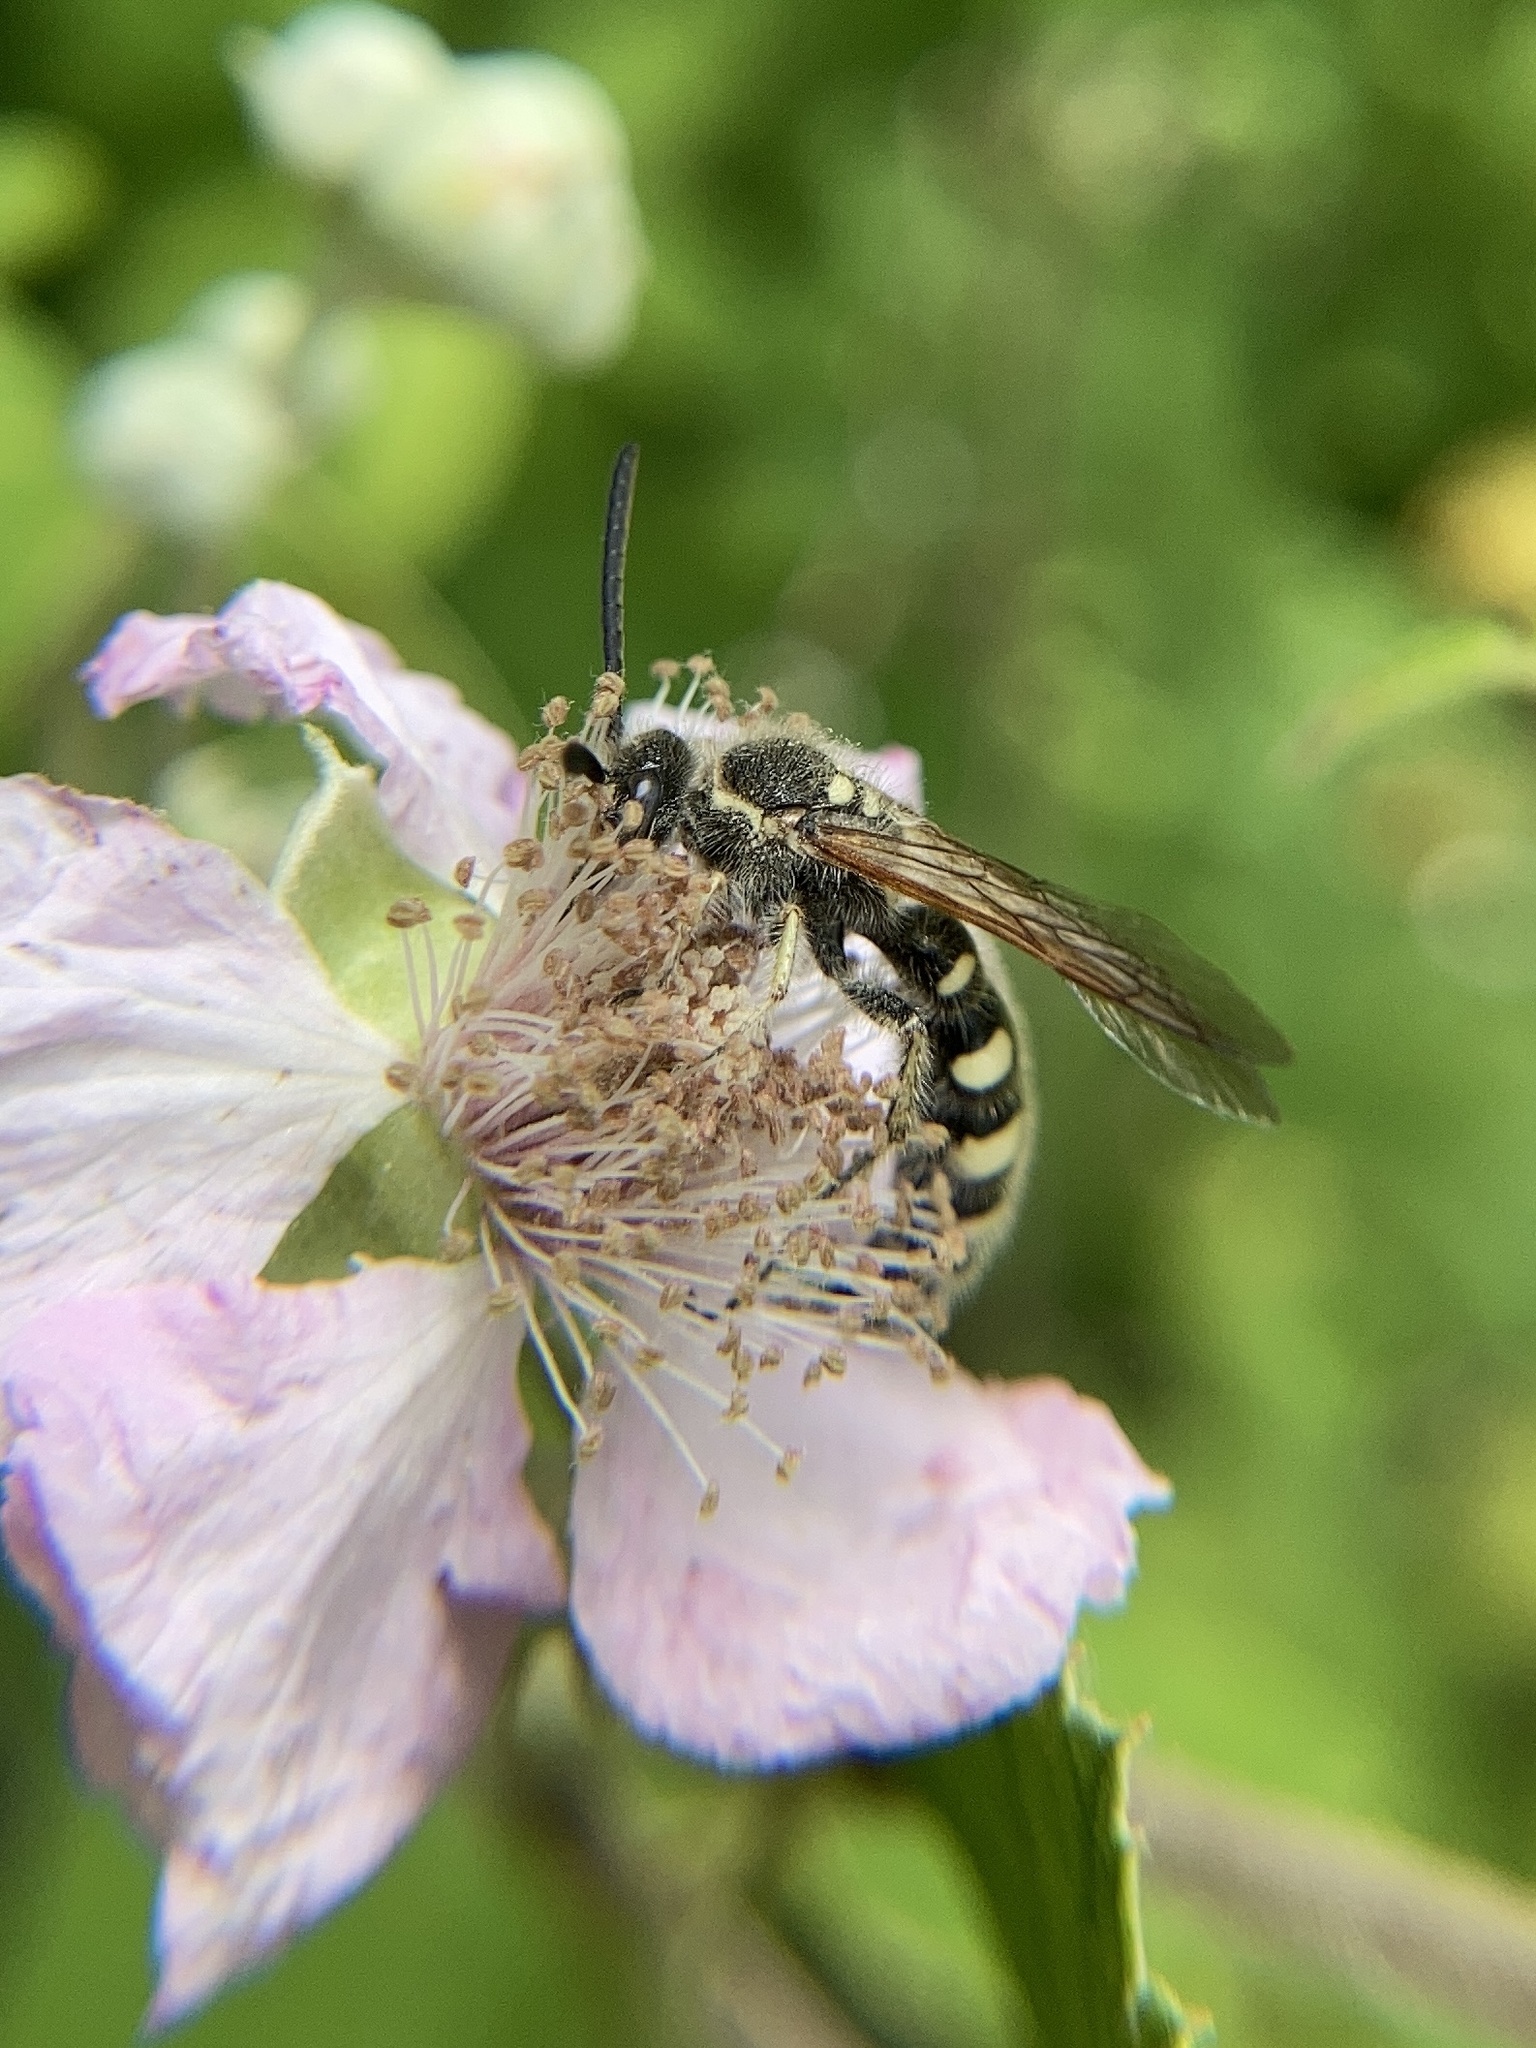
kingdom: Animalia
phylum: Arthropoda
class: Insecta
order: Hymenoptera
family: Vespidae
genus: Vespa
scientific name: Vespa sexmaculata
